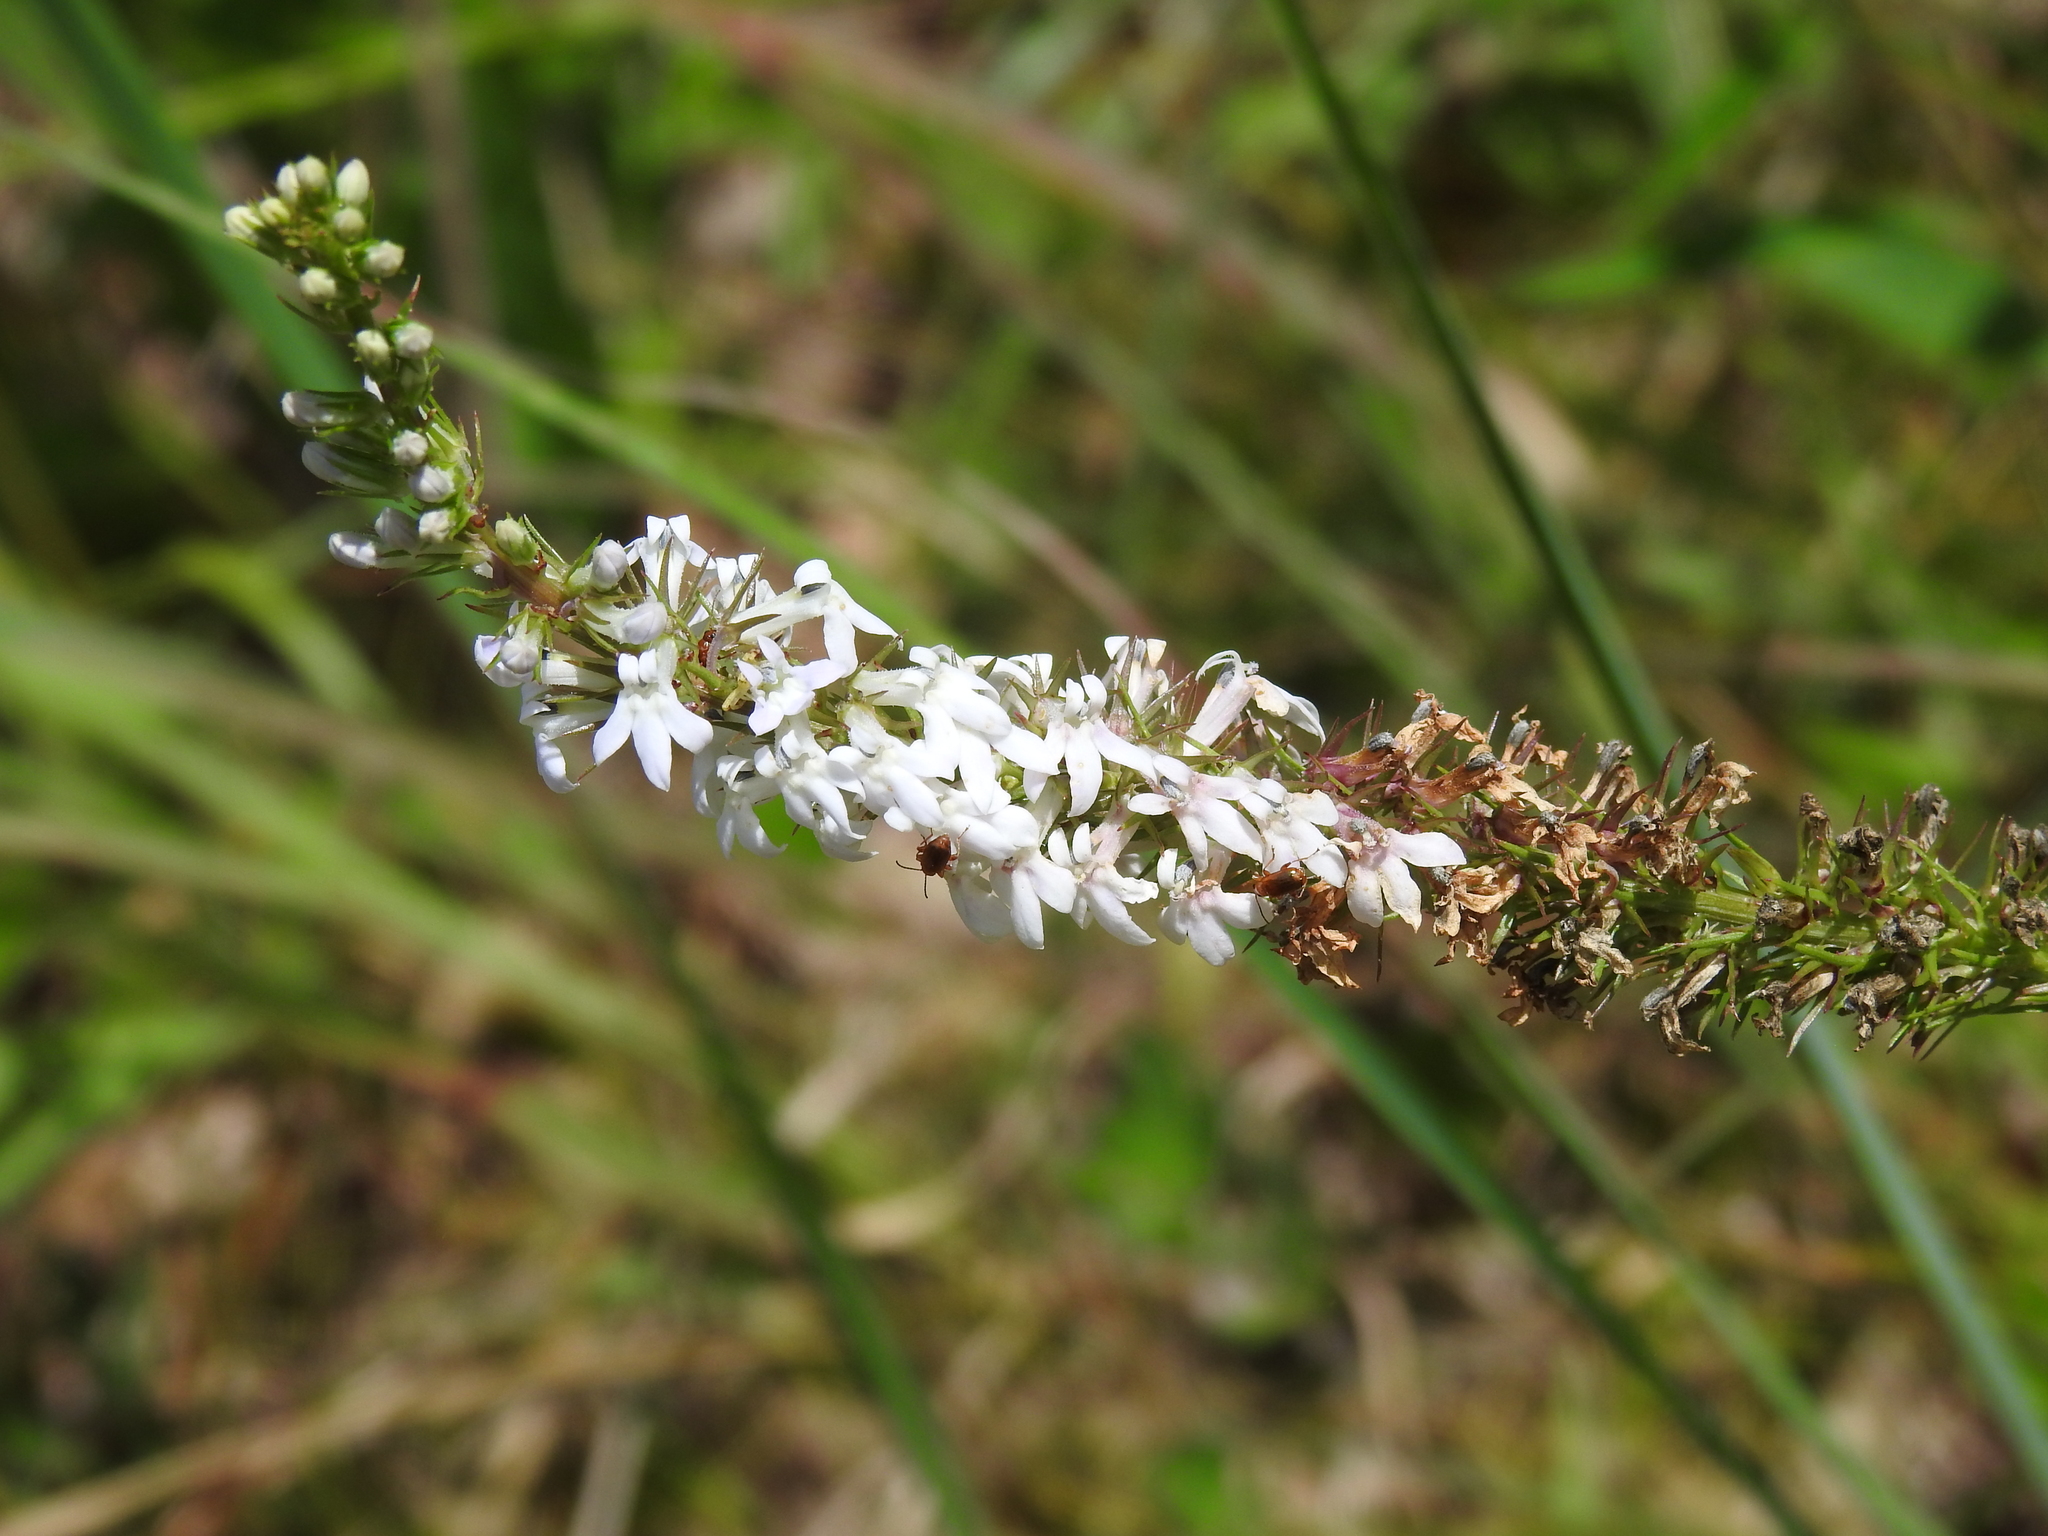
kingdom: Plantae
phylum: Tracheophyta
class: Magnoliopsida
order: Asterales
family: Campanulaceae
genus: Lobelia
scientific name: Lobelia spicata
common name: Pale-spike lobelia
